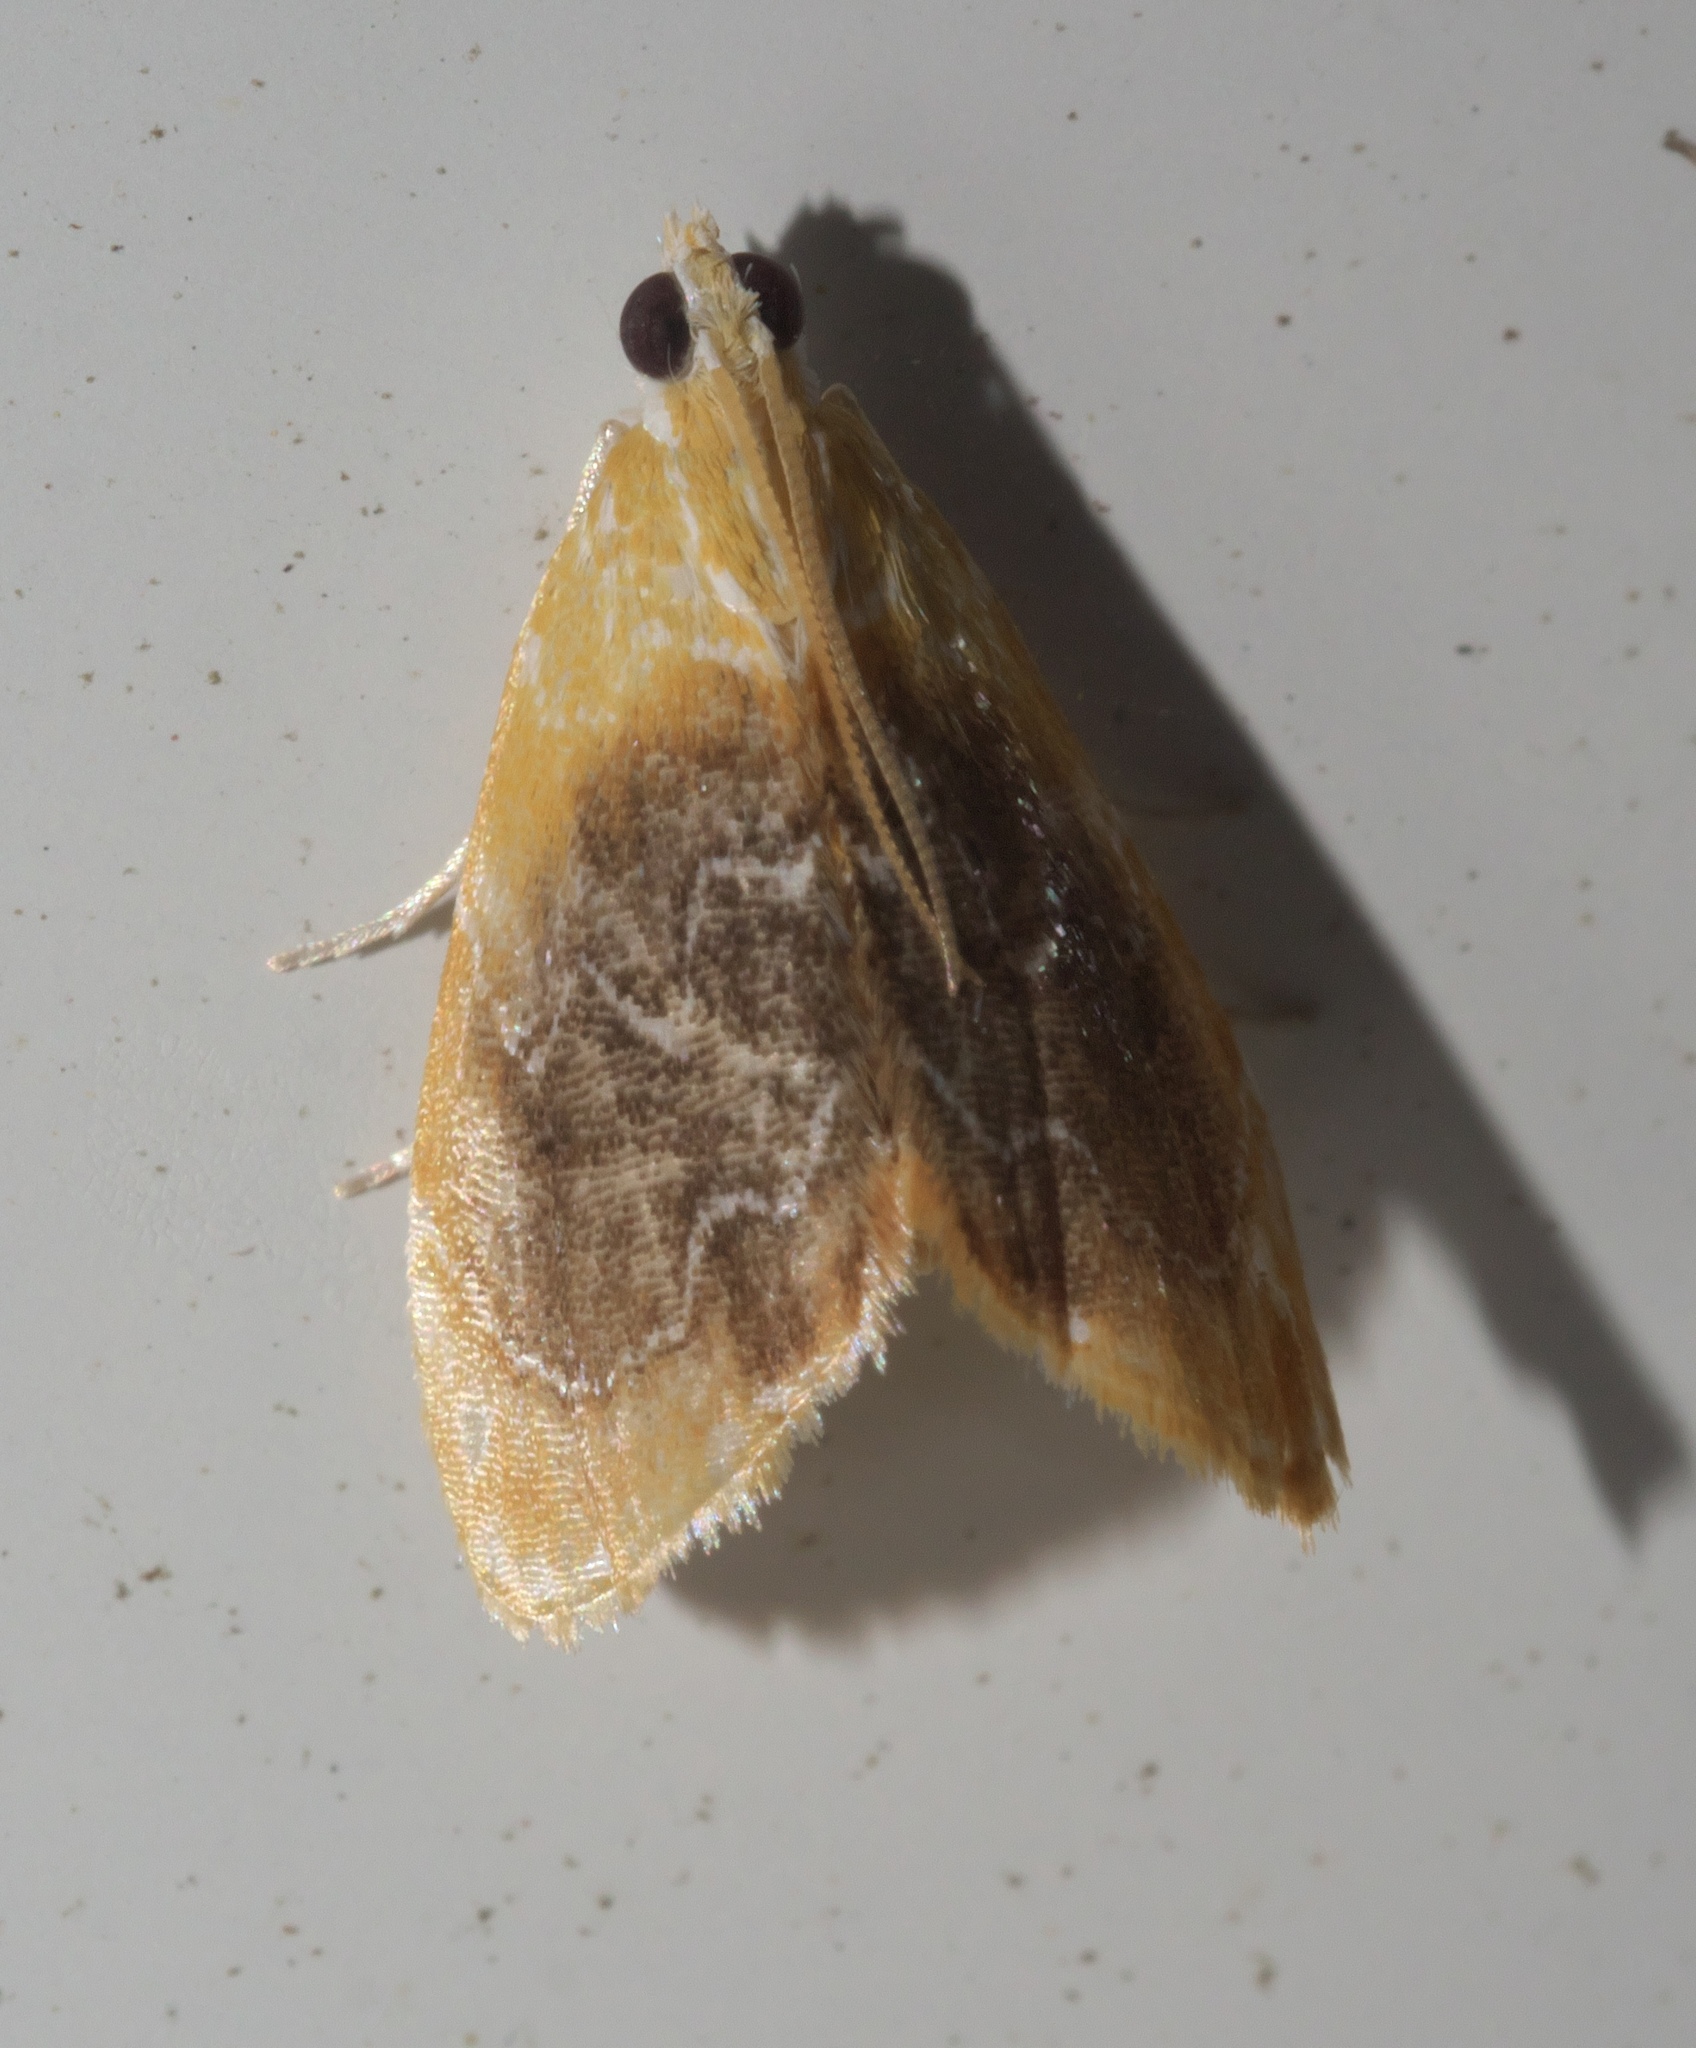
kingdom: Animalia
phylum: Arthropoda
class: Insecta
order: Lepidoptera
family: Crambidae
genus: Glaphyria
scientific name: Glaphyria fulminalis
